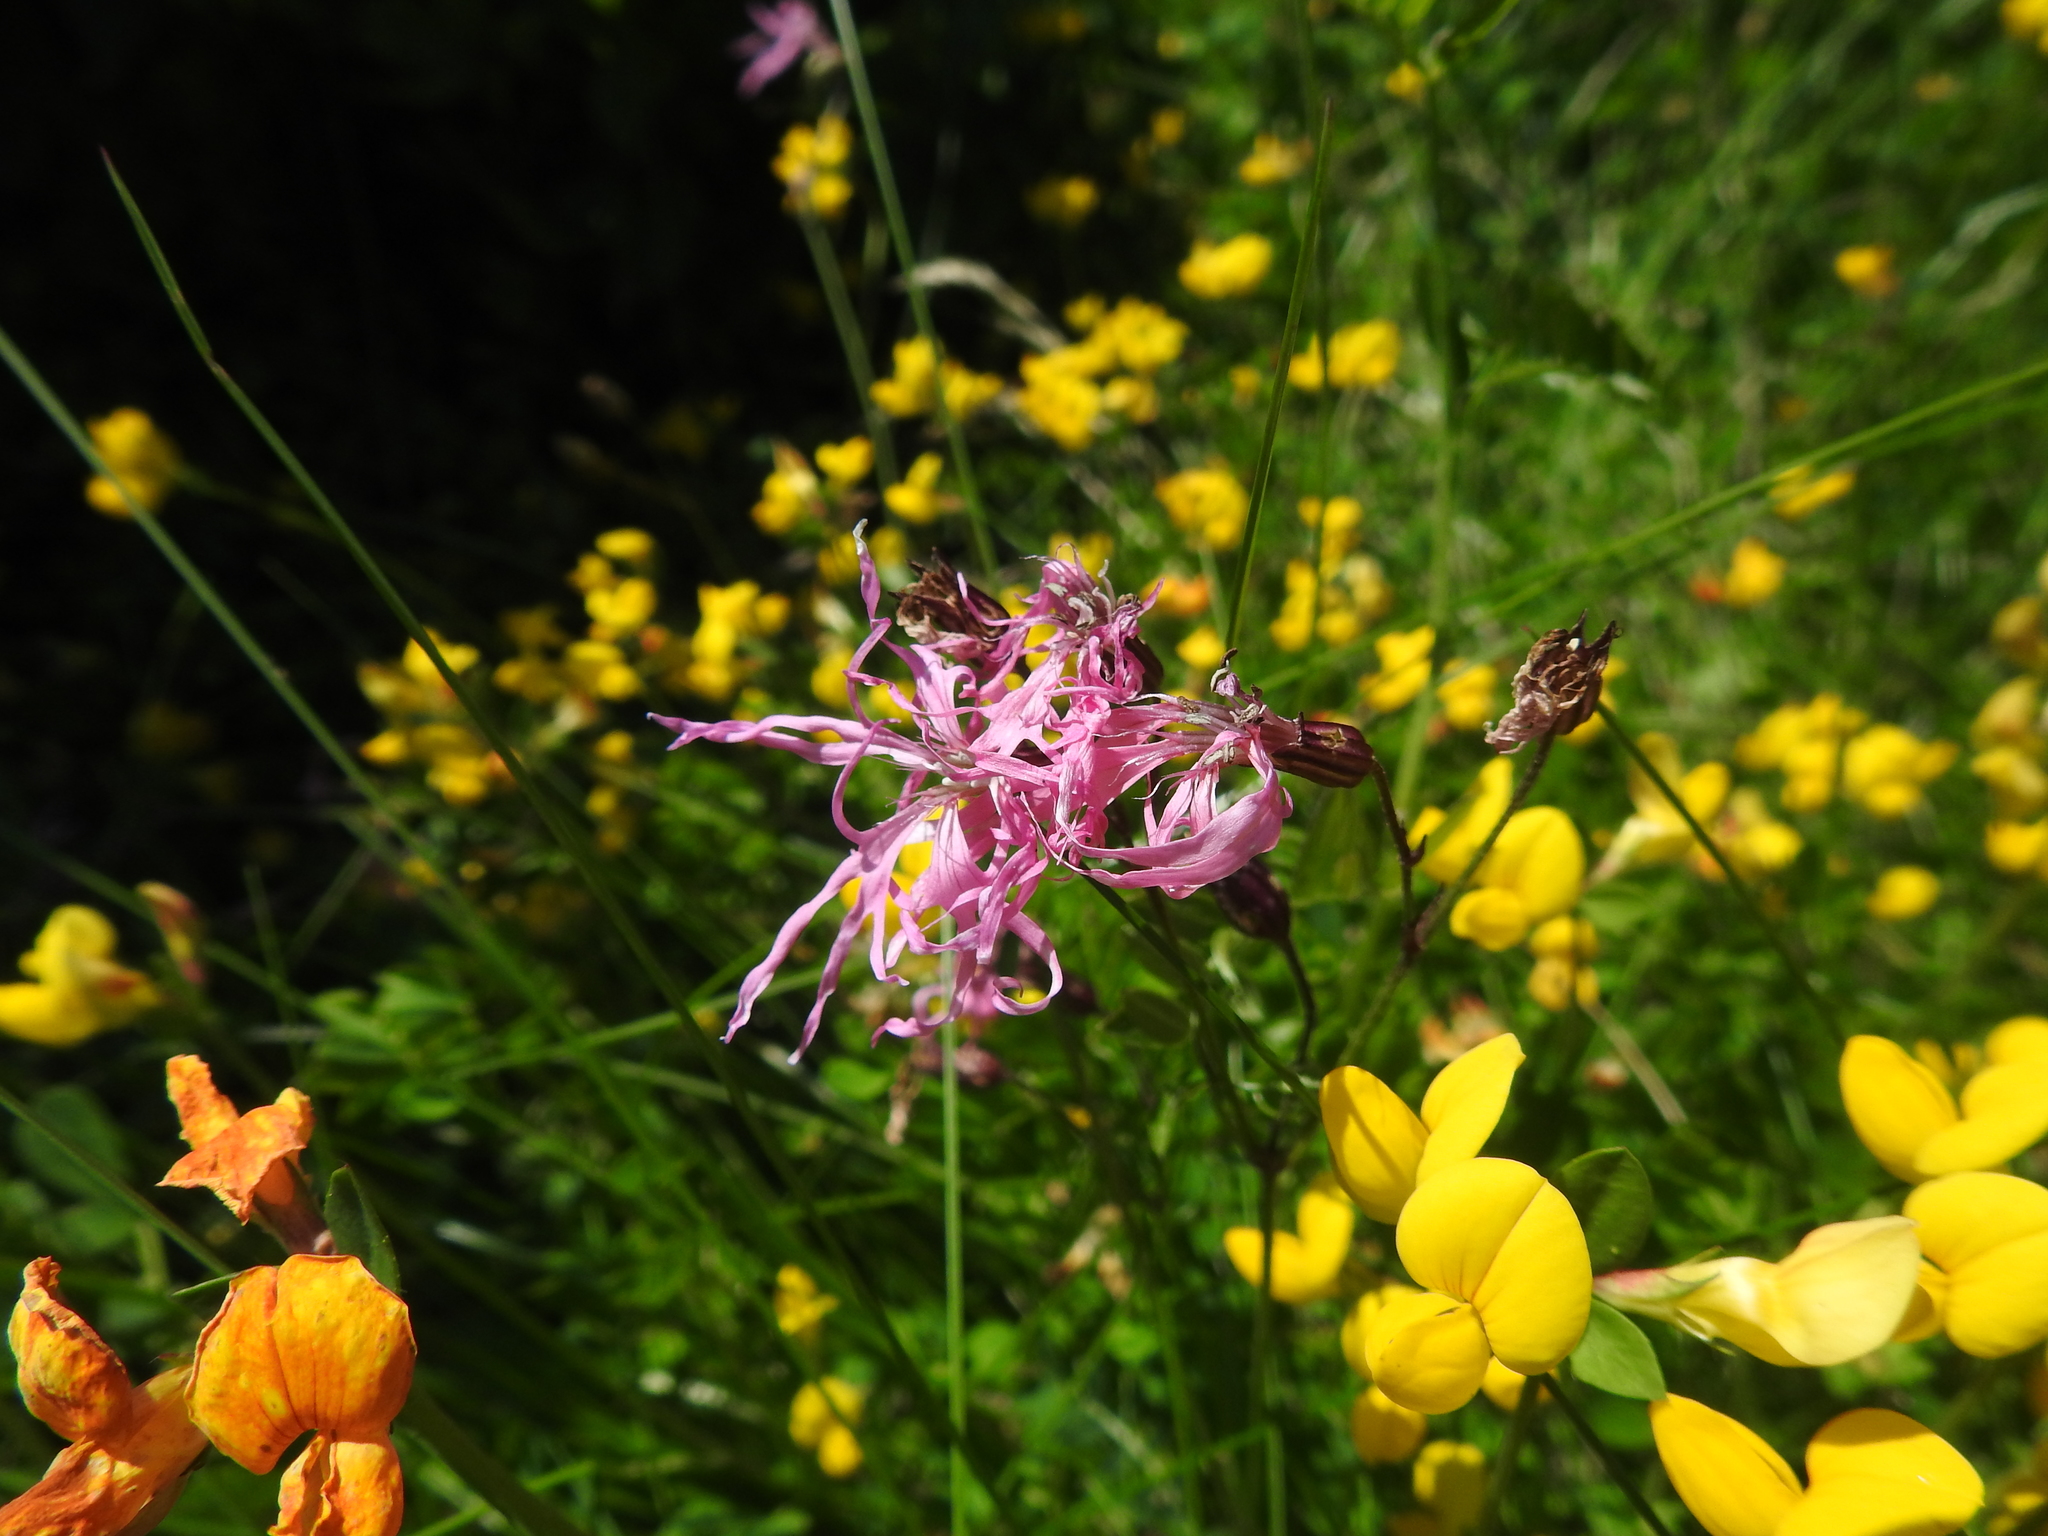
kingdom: Plantae
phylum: Tracheophyta
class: Magnoliopsida
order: Caryophyllales
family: Caryophyllaceae
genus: Silene
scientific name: Silene flos-cuculi
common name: Ragged-robin
